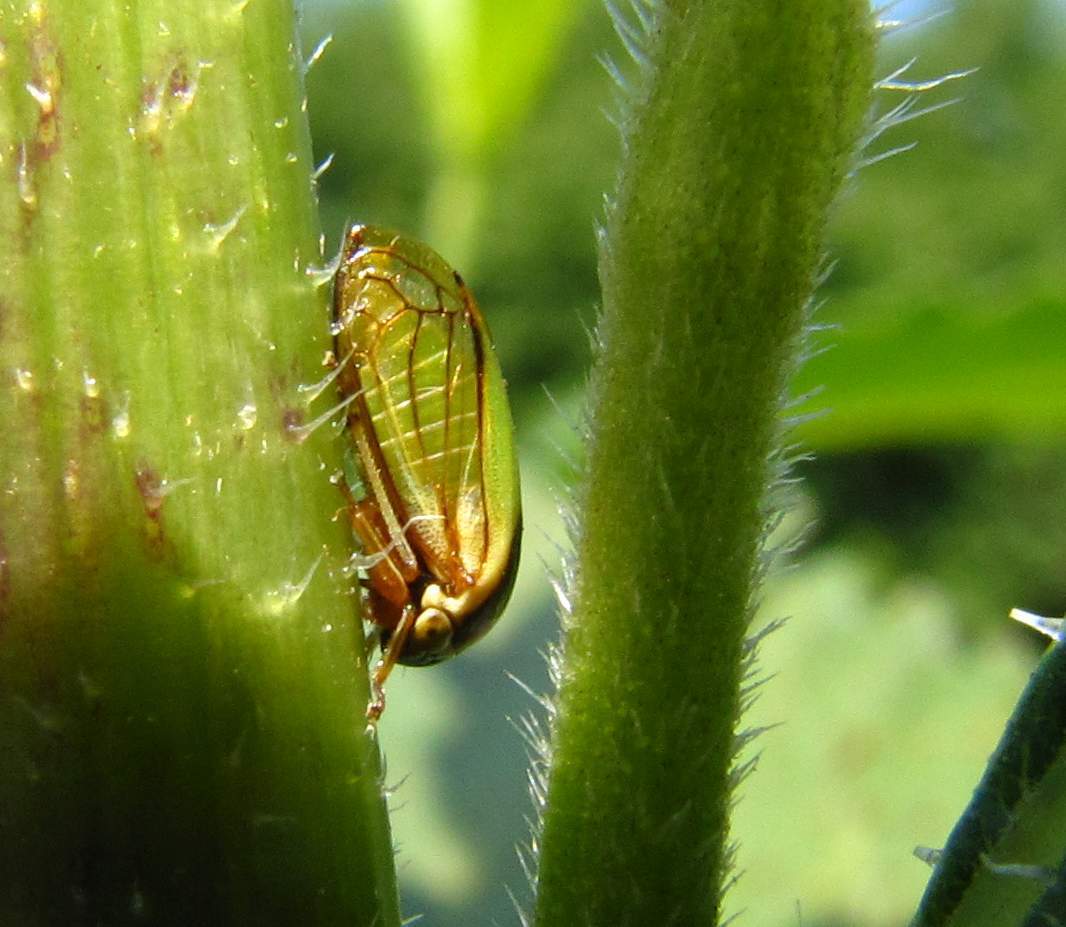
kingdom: Animalia
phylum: Arthropoda
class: Insecta
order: Hemiptera
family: Membracidae
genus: Acutalis
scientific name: Acutalis tartarea
